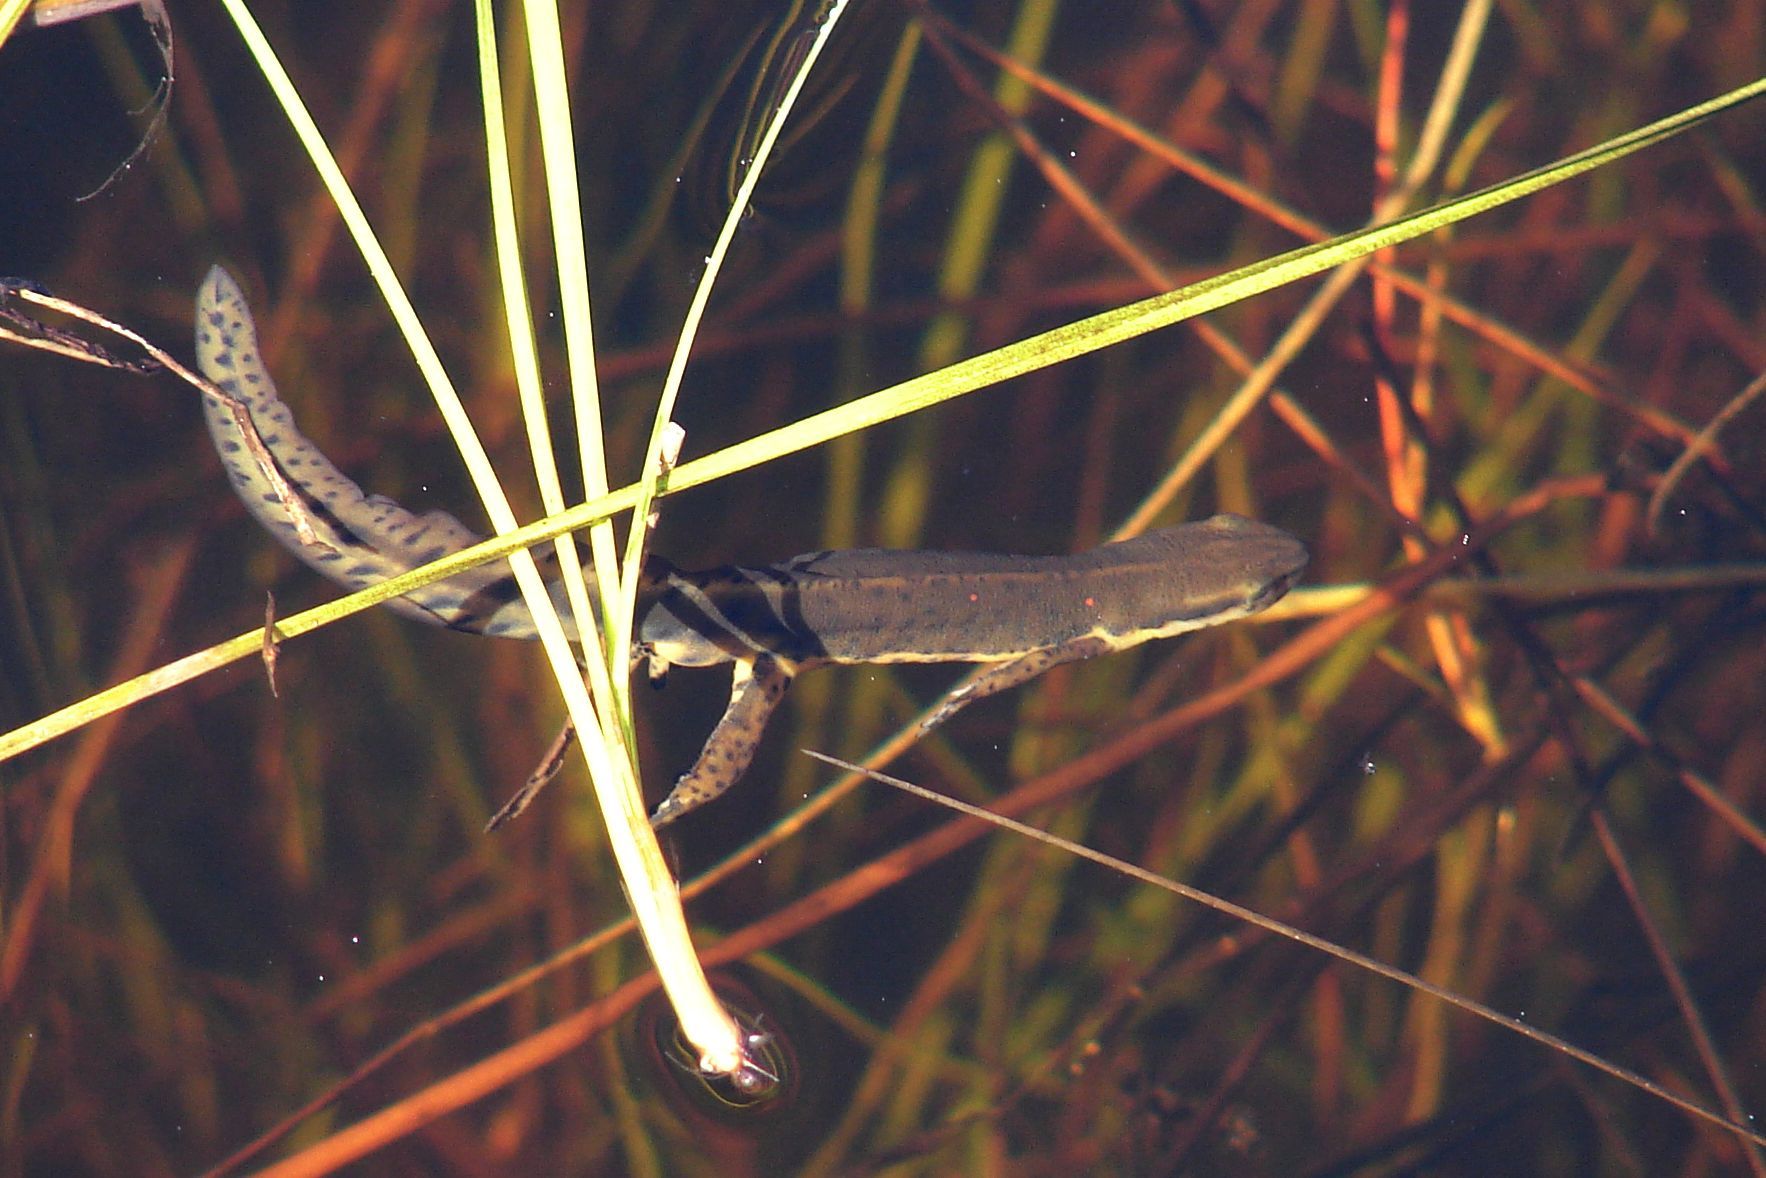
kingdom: Animalia
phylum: Chordata
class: Amphibia
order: Caudata
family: Salamandridae
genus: Notophthalmus
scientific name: Notophthalmus viridescens
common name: Eastern newt
